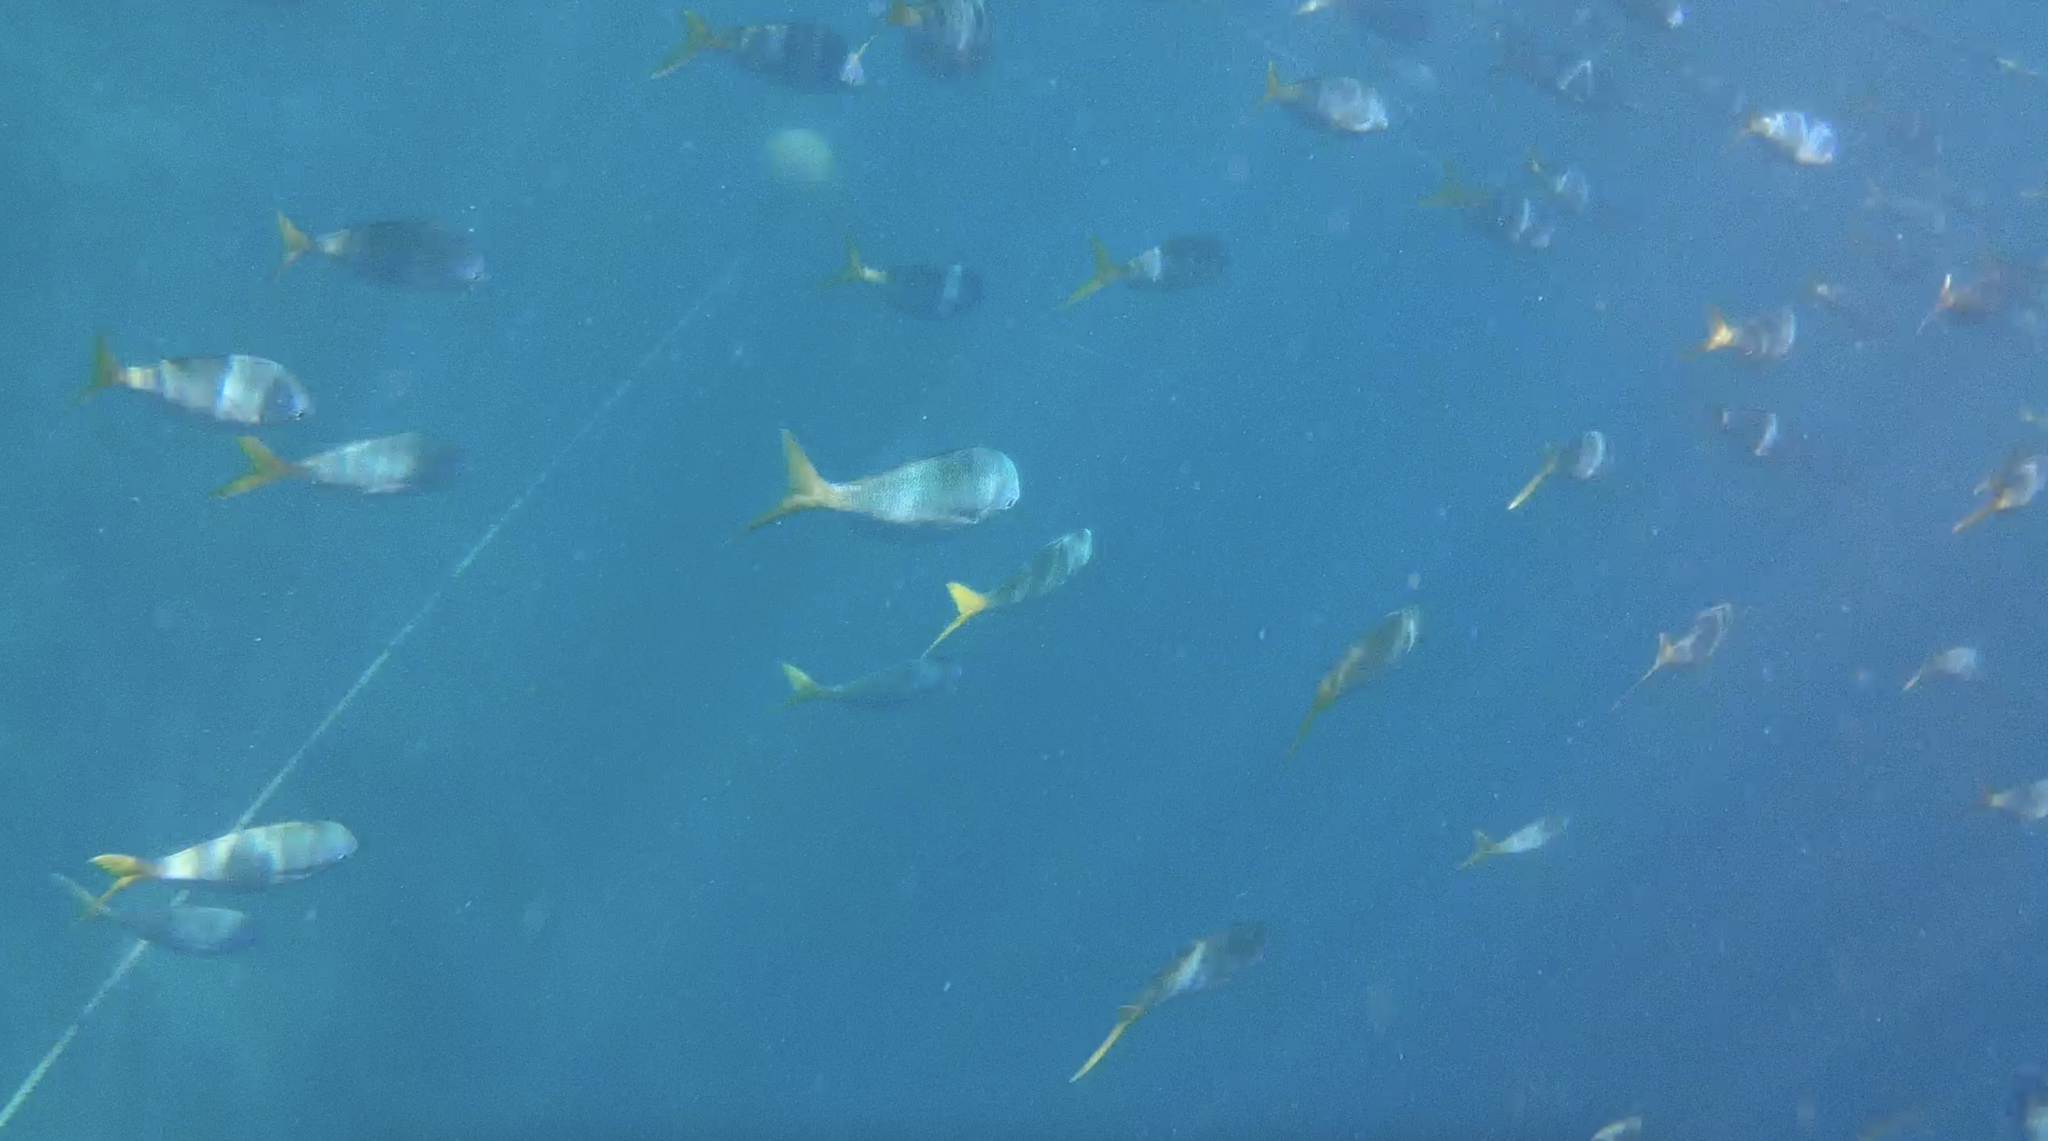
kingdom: Animalia
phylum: Chordata
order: Perciformes
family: Caesionidae
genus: Caesio
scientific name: Caesio cuning
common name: Red-bellied fusilier
